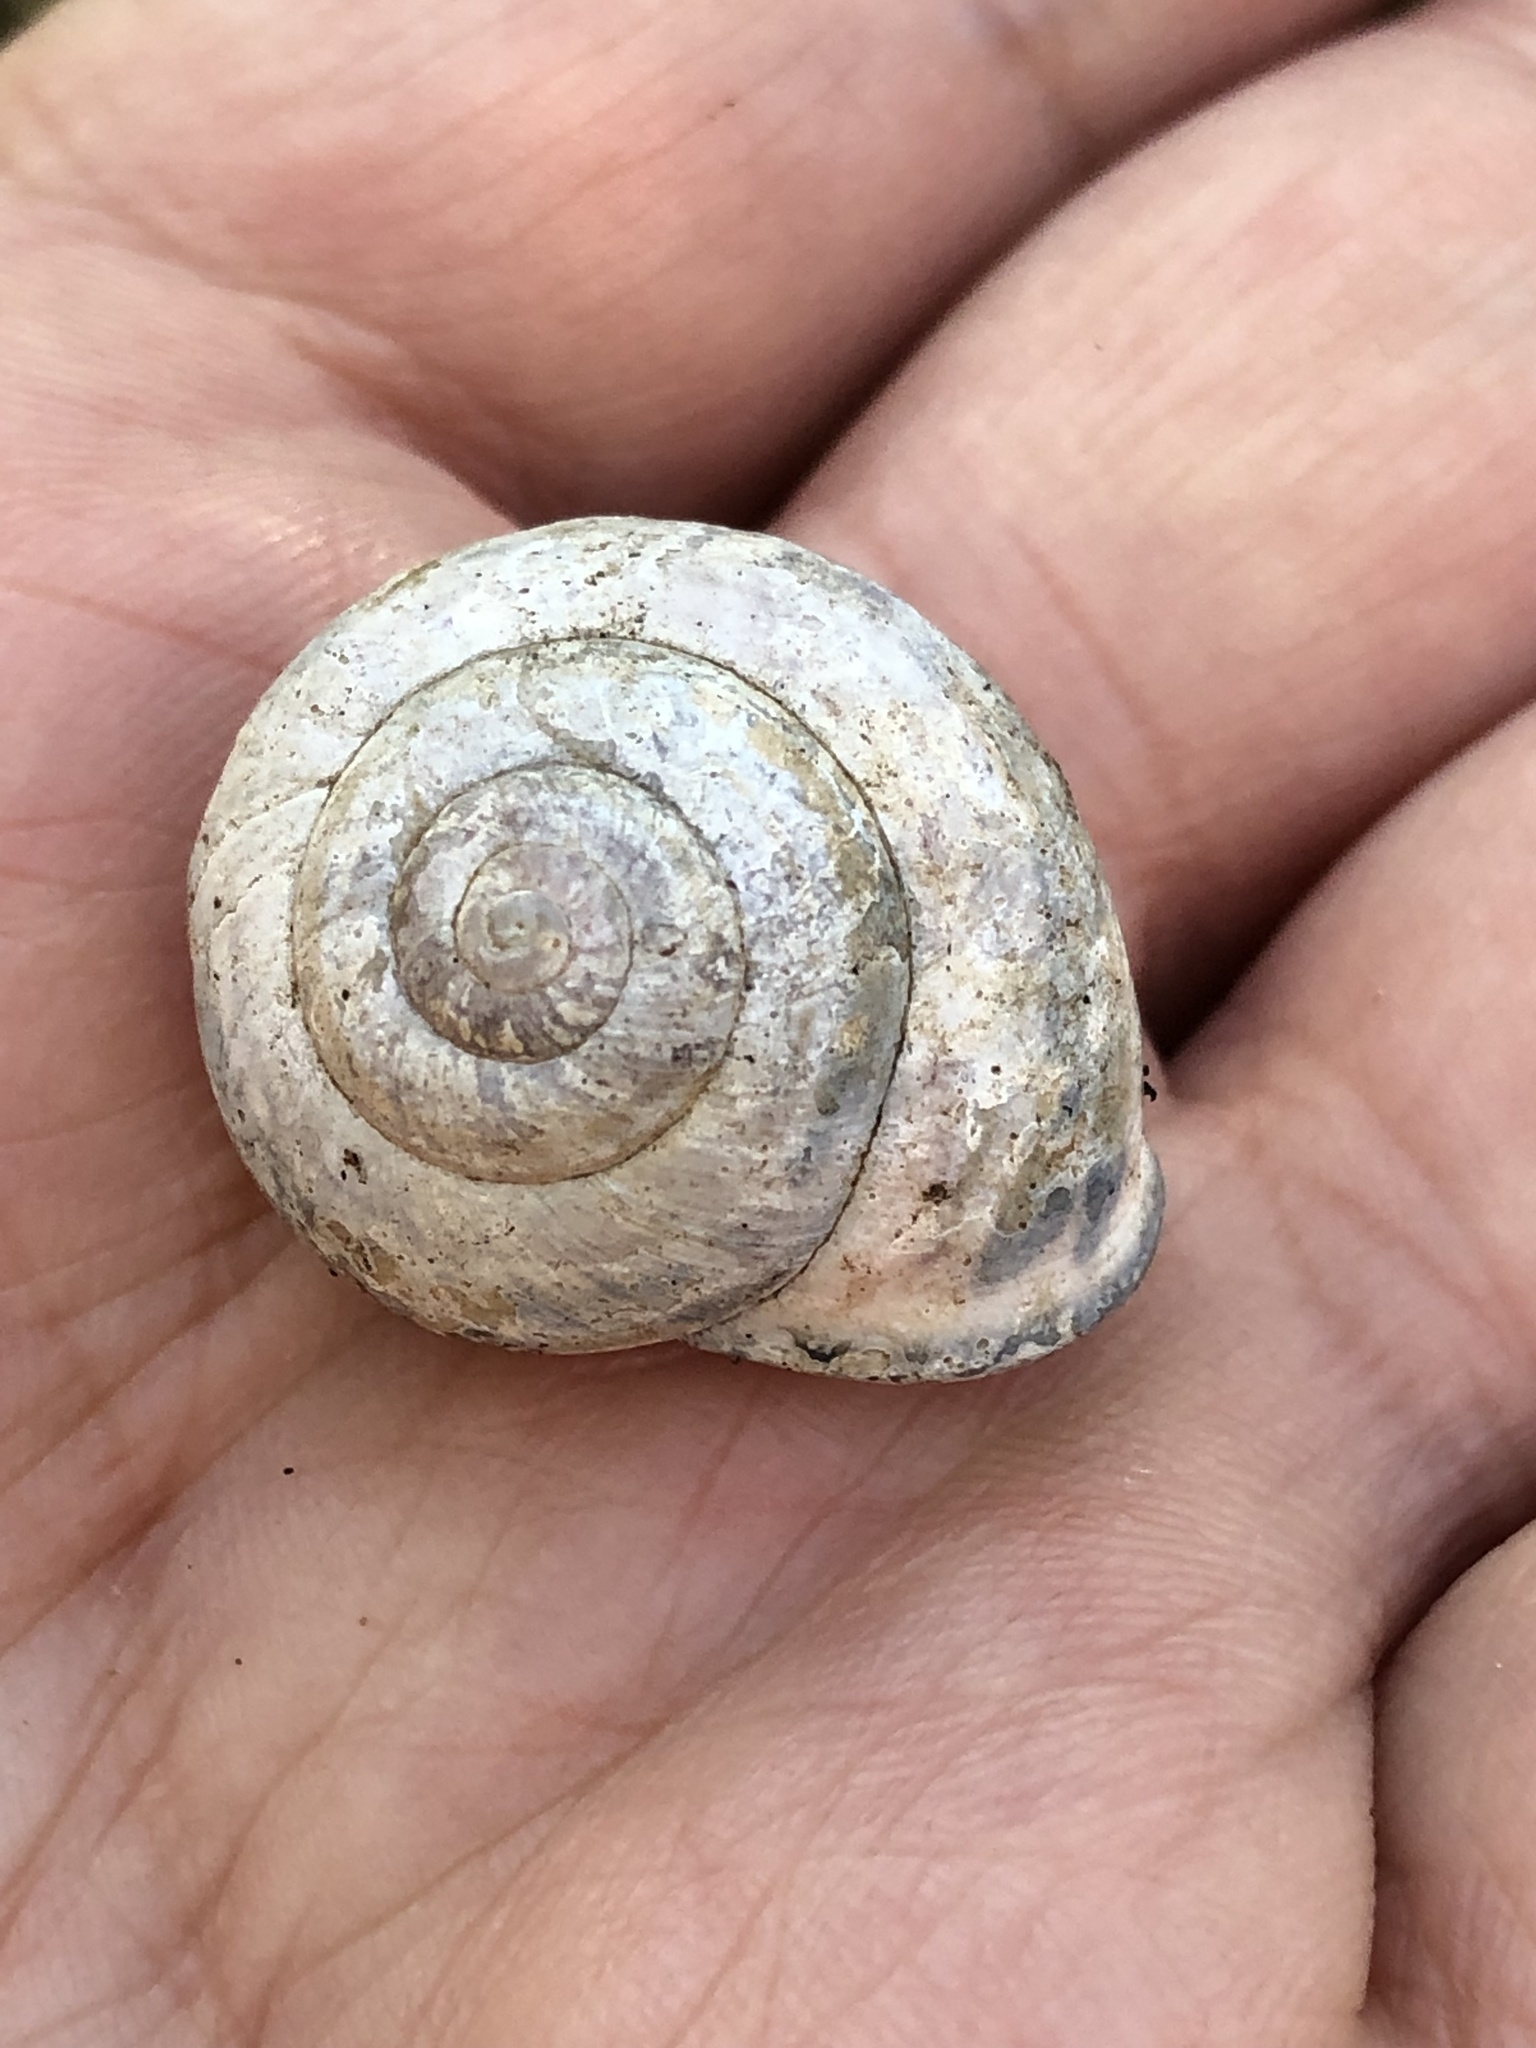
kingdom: Animalia
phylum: Mollusca
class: Gastropoda
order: Stylommatophora
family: Helicidae
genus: Cepaea
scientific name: Cepaea nemoralis
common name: Grovesnail
